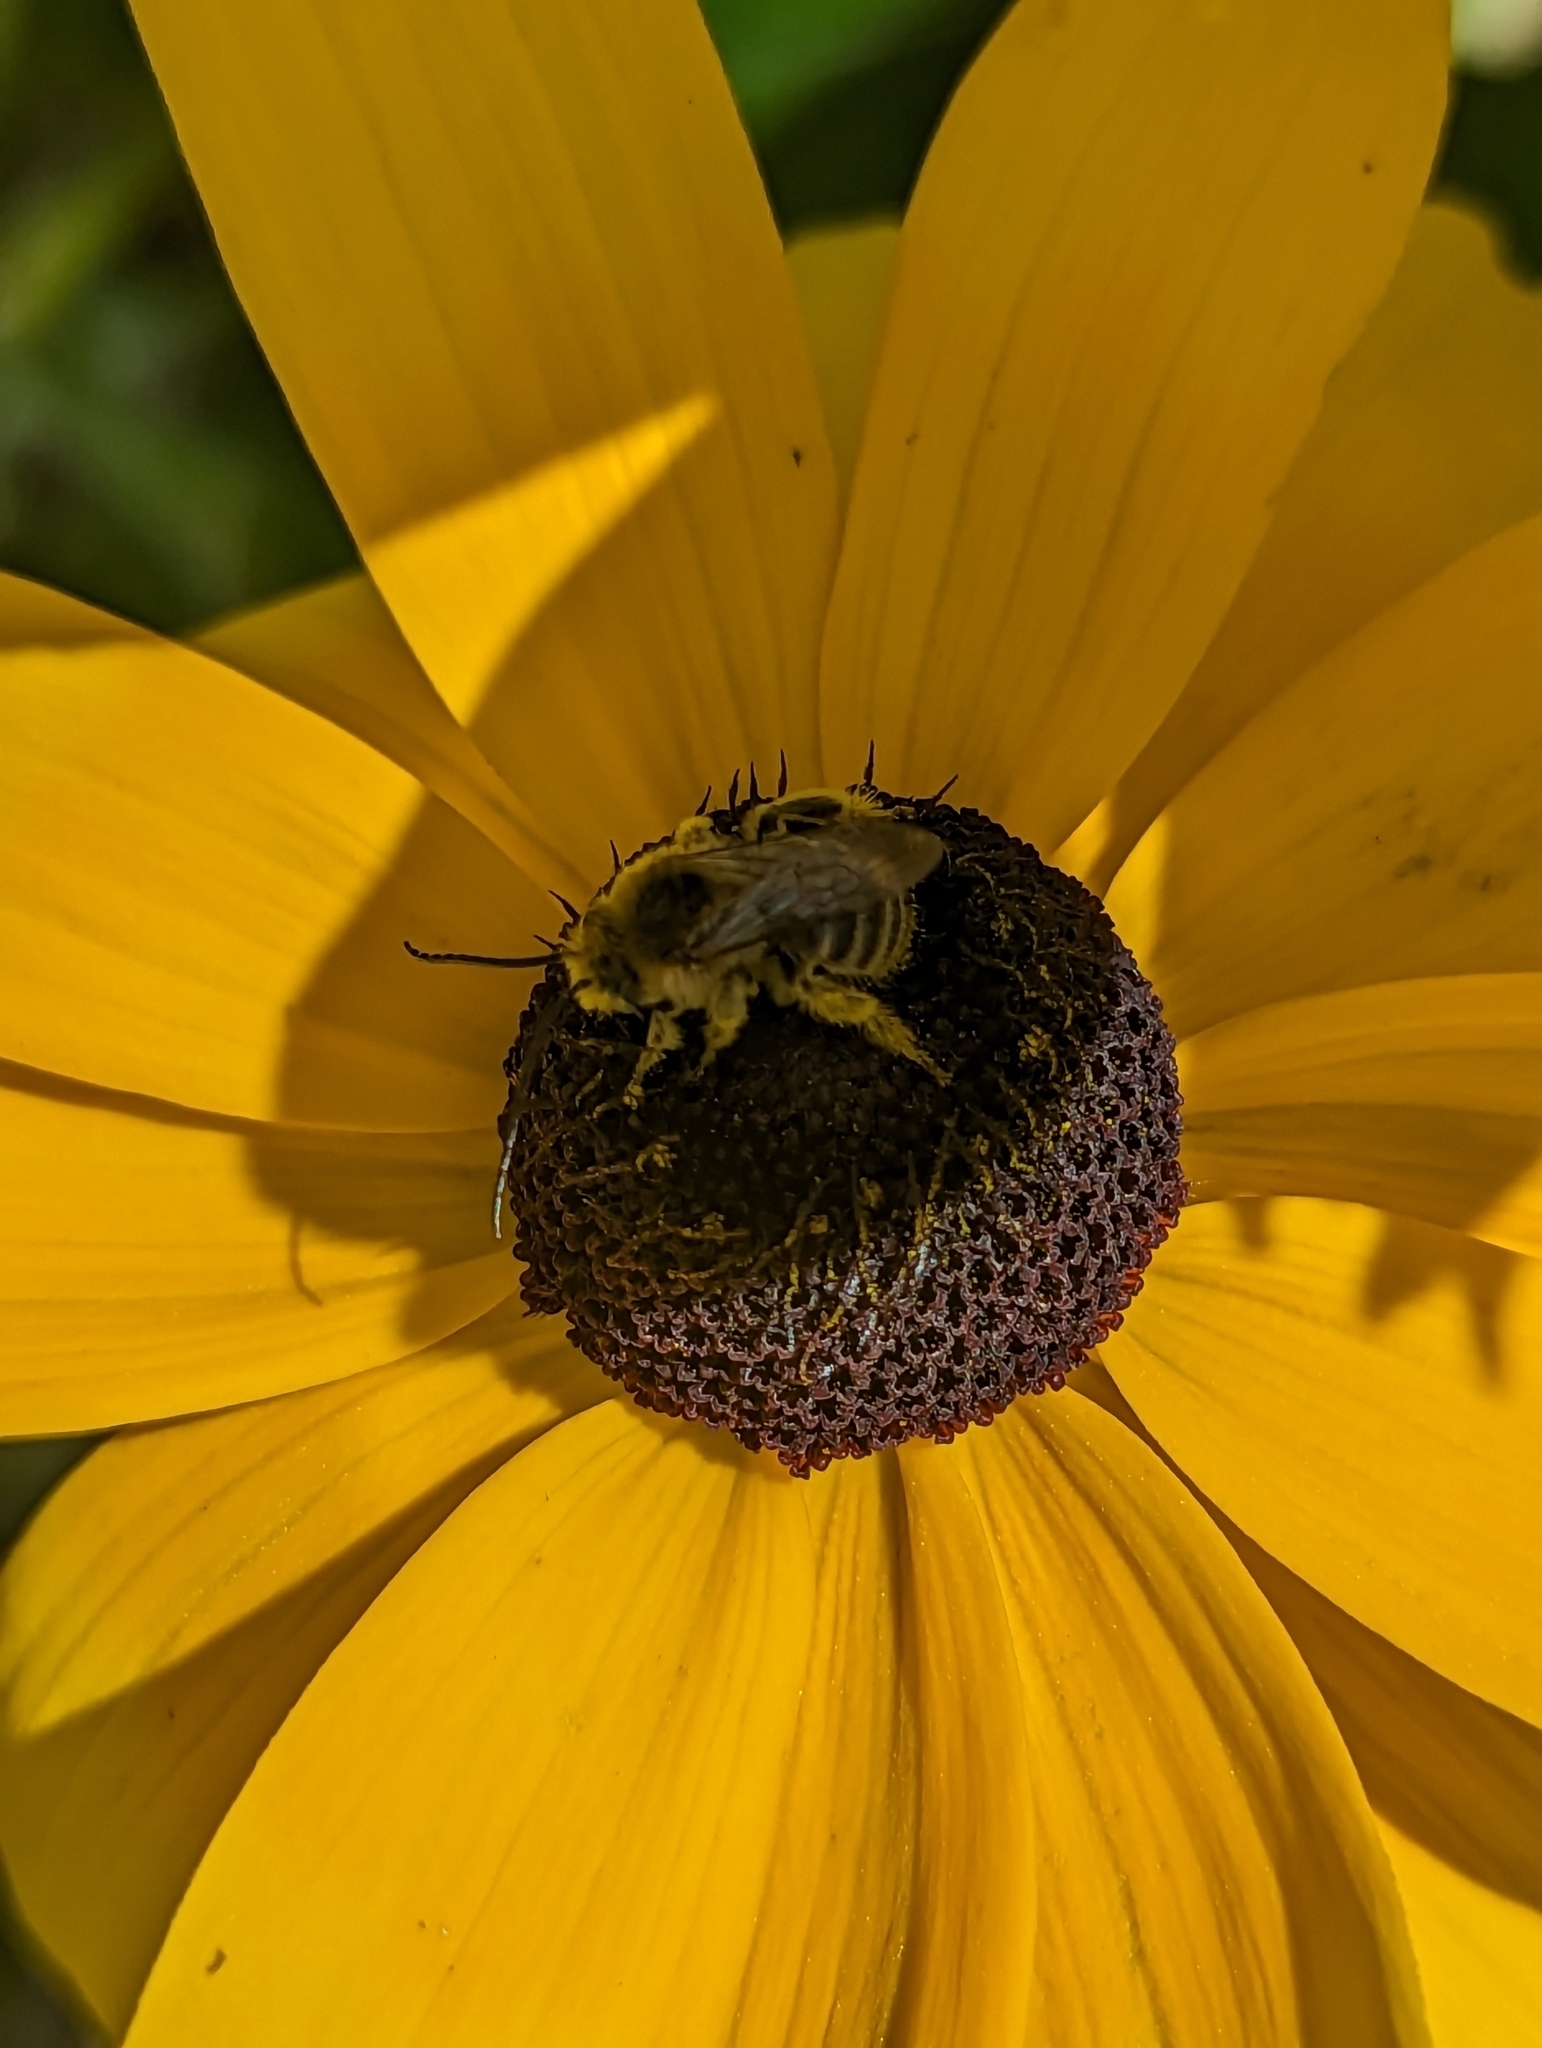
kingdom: Animalia
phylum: Arthropoda
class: Insecta
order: Hymenoptera
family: Apidae
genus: Melissodes
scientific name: Melissodes druriellus
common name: Drury's long-horned bee
